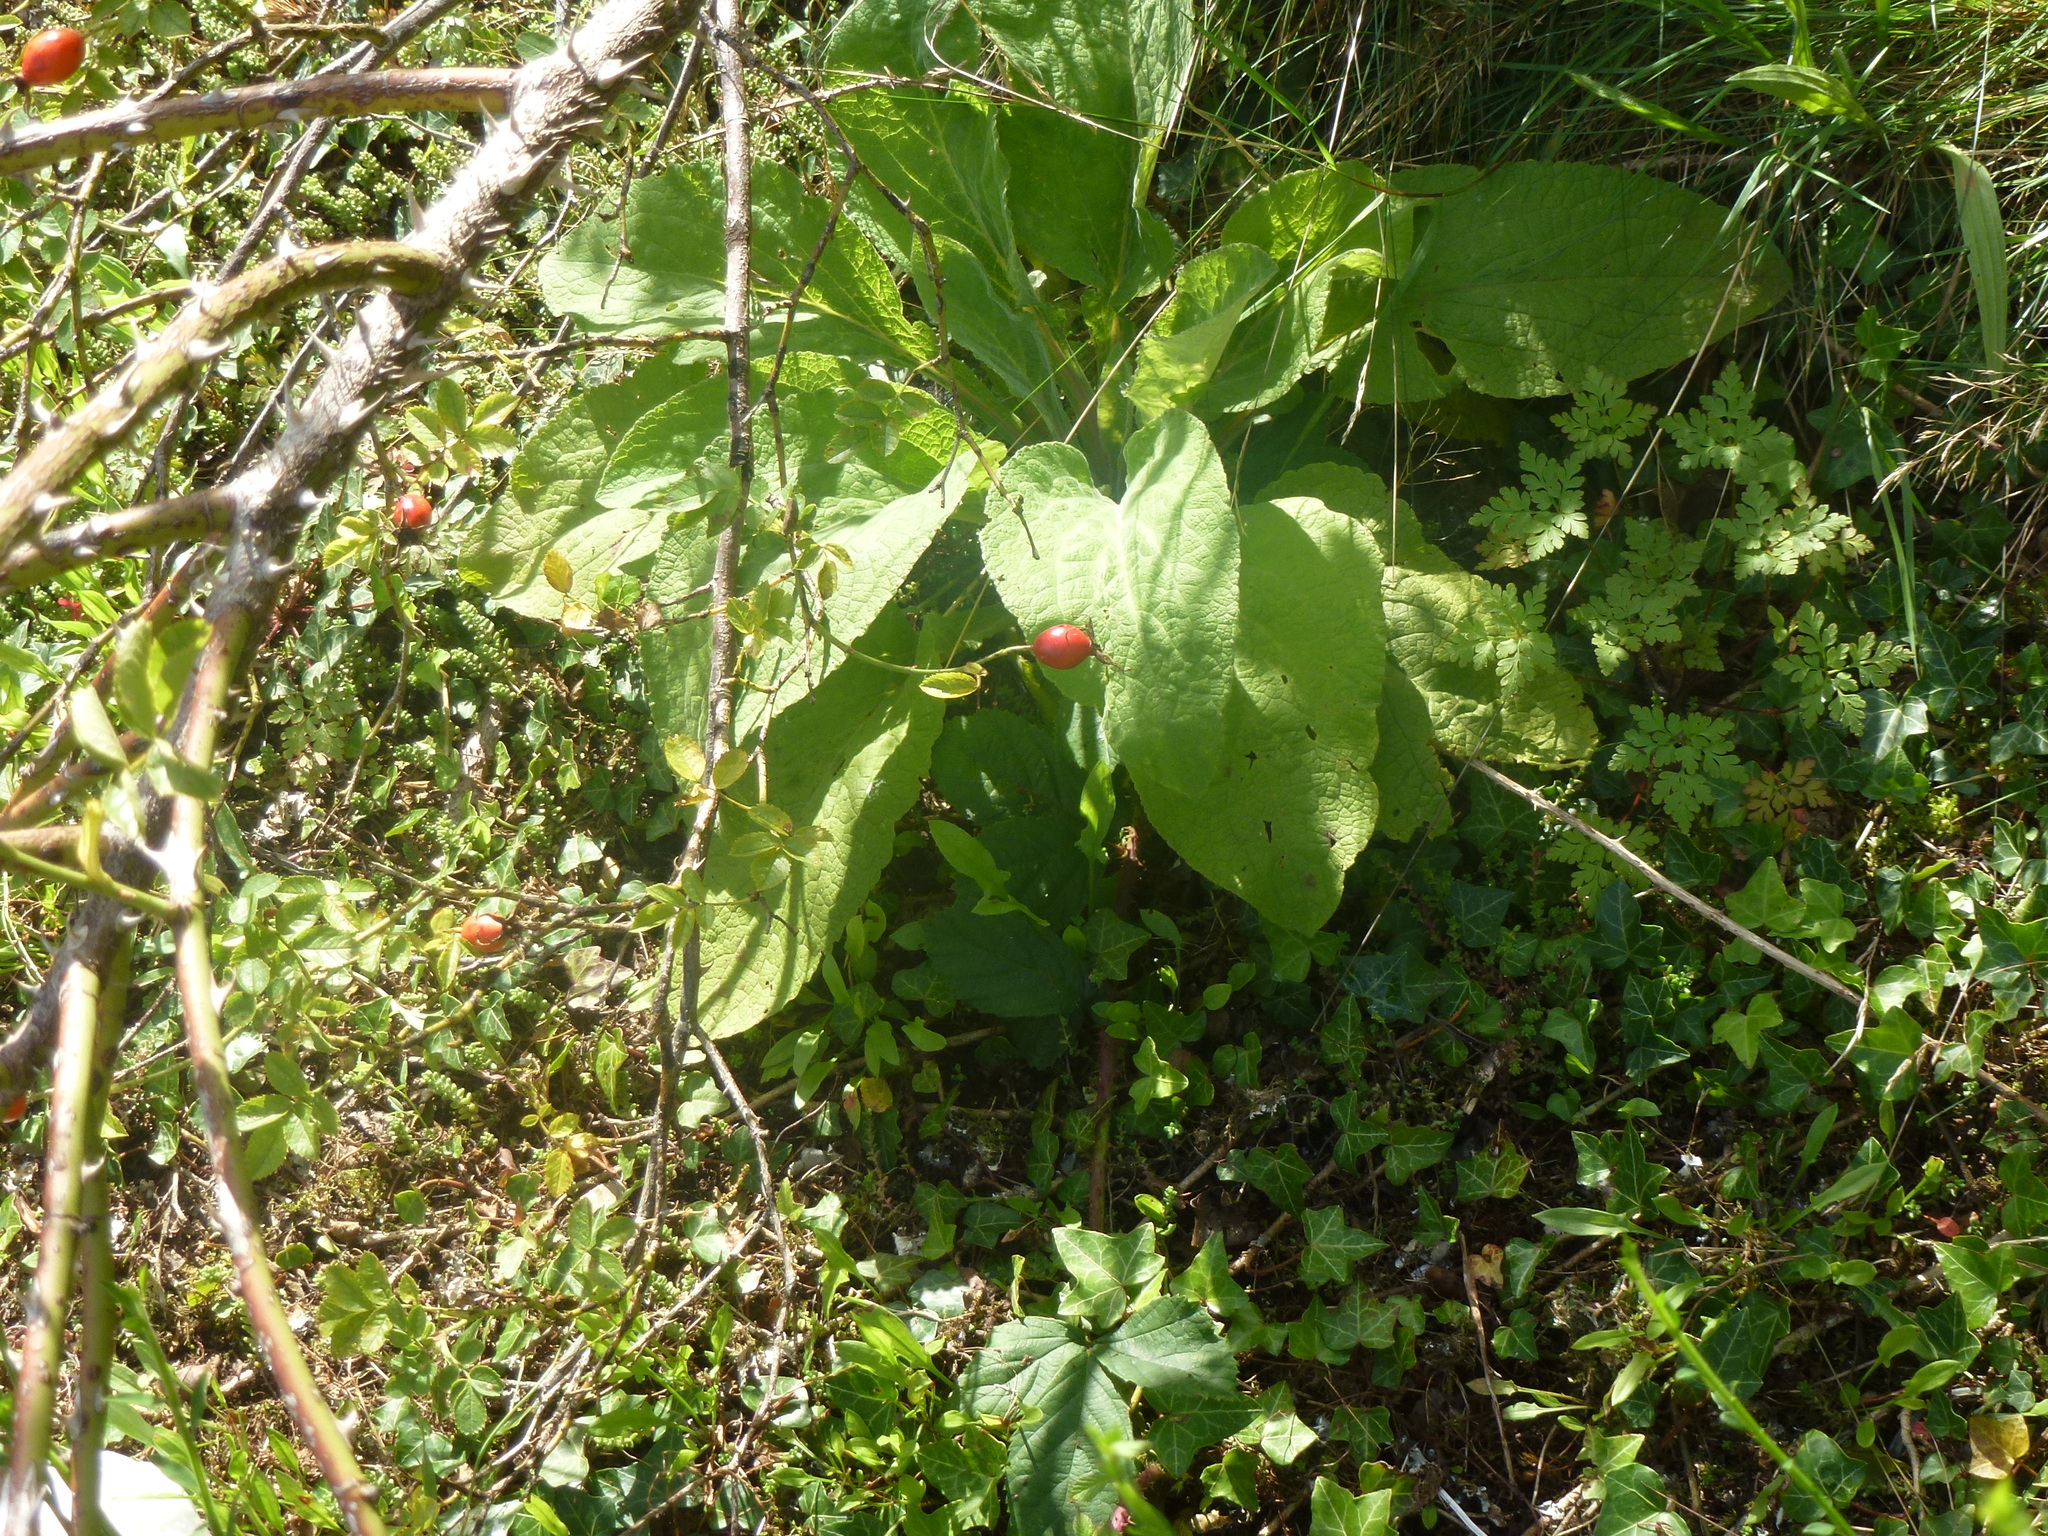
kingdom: Plantae
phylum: Tracheophyta
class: Magnoliopsida
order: Lamiales
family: Plantaginaceae
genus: Digitalis
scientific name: Digitalis purpurea
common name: Foxglove
